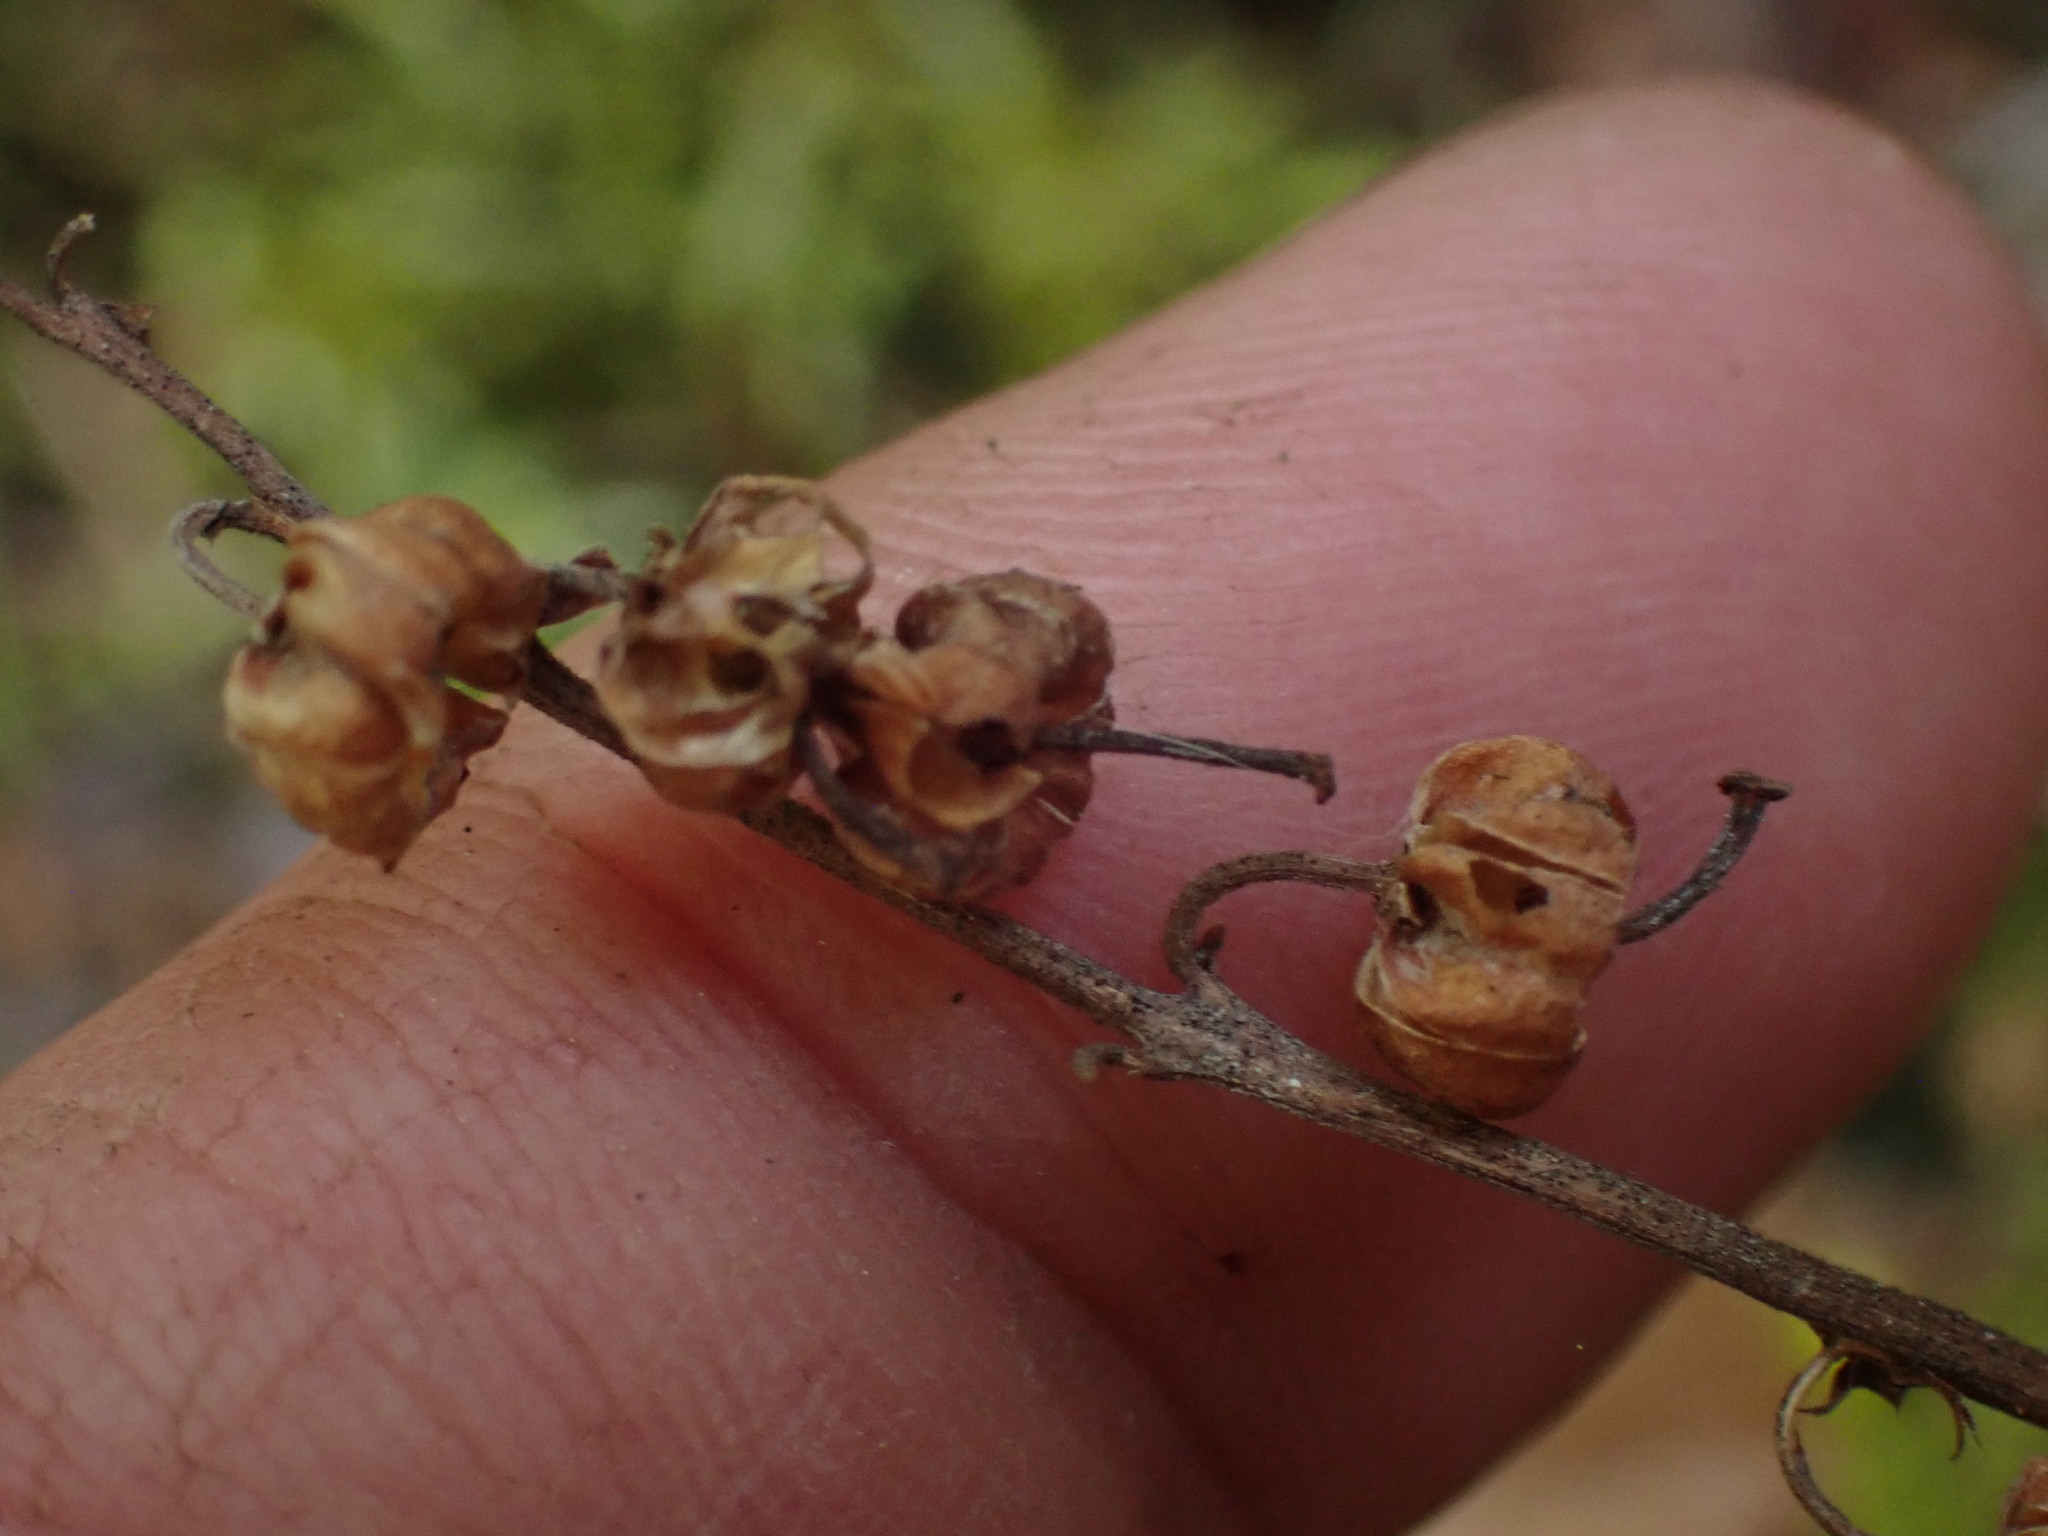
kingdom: Plantae
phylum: Tracheophyta
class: Magnoliopsida
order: Ericales
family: Ericaceae
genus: Orthilia
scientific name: Orthilia secunda
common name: One-sided orthilia
